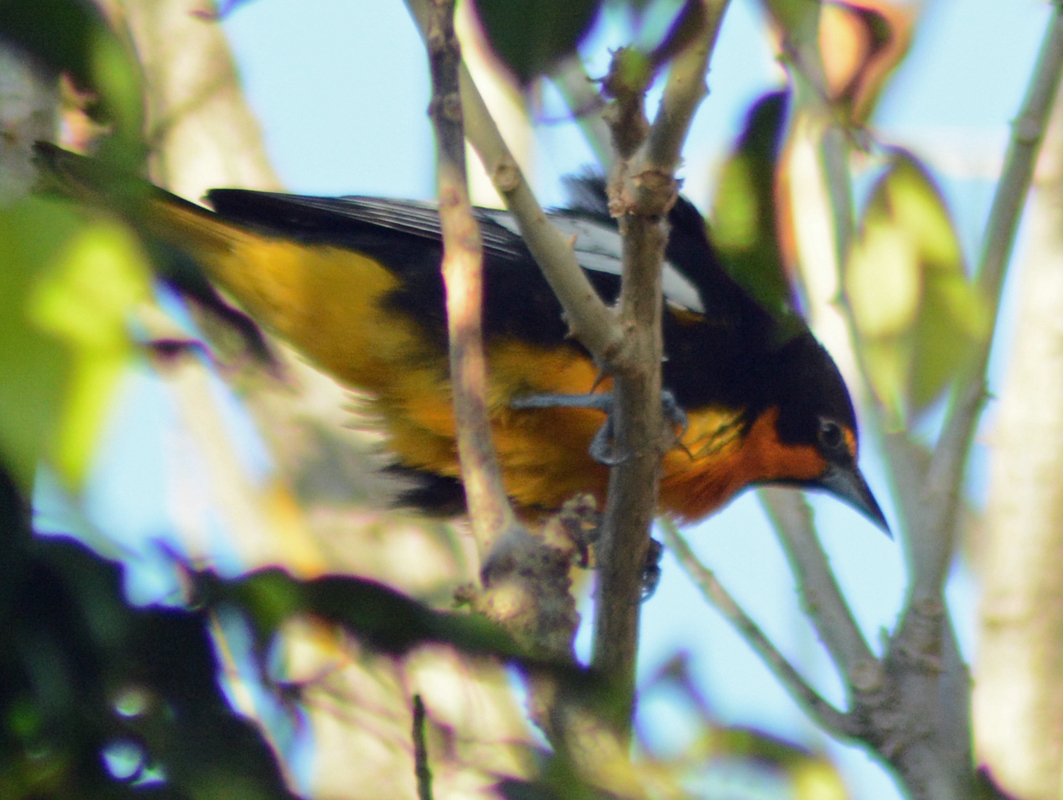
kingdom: Animalia
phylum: Chordata
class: Aves
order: Passeriformes
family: Icteridae
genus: Icterus
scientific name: Icterus abeillei
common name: Black-backed oriole
